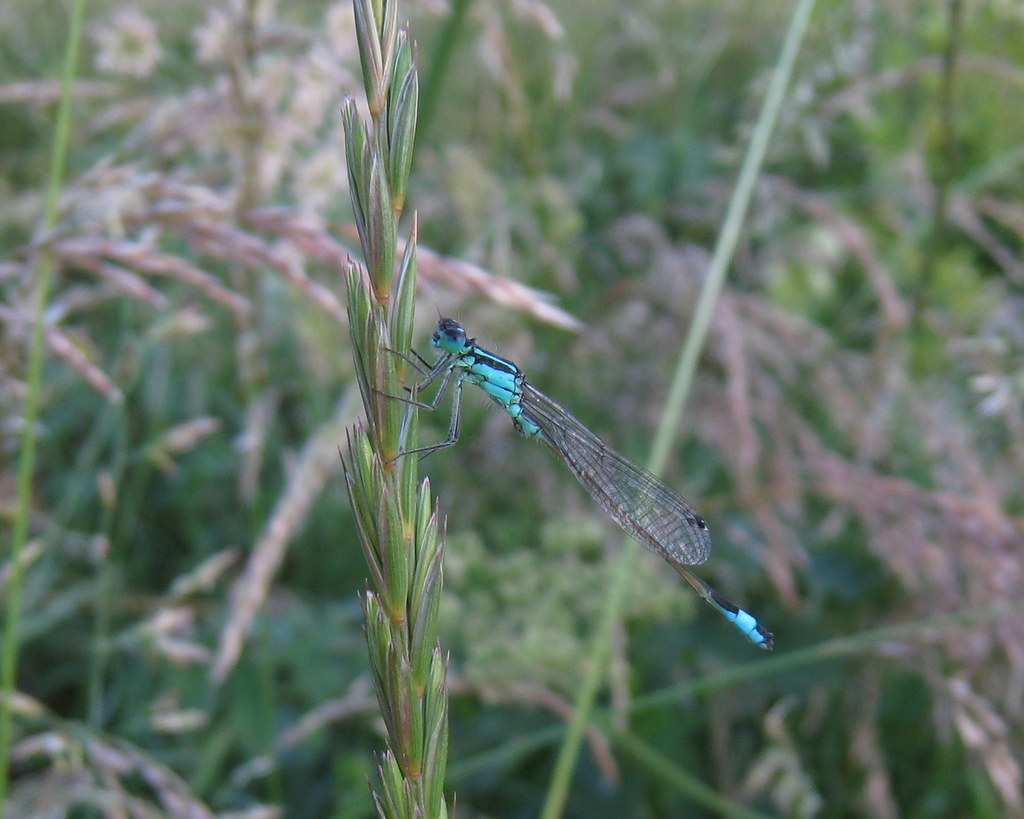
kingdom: Animalia
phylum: Arthropoda
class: Insecta
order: Odonata
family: Coenagrionidae
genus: Ischnura
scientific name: Ischnura elegans
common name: Blue-tailed damselfly
